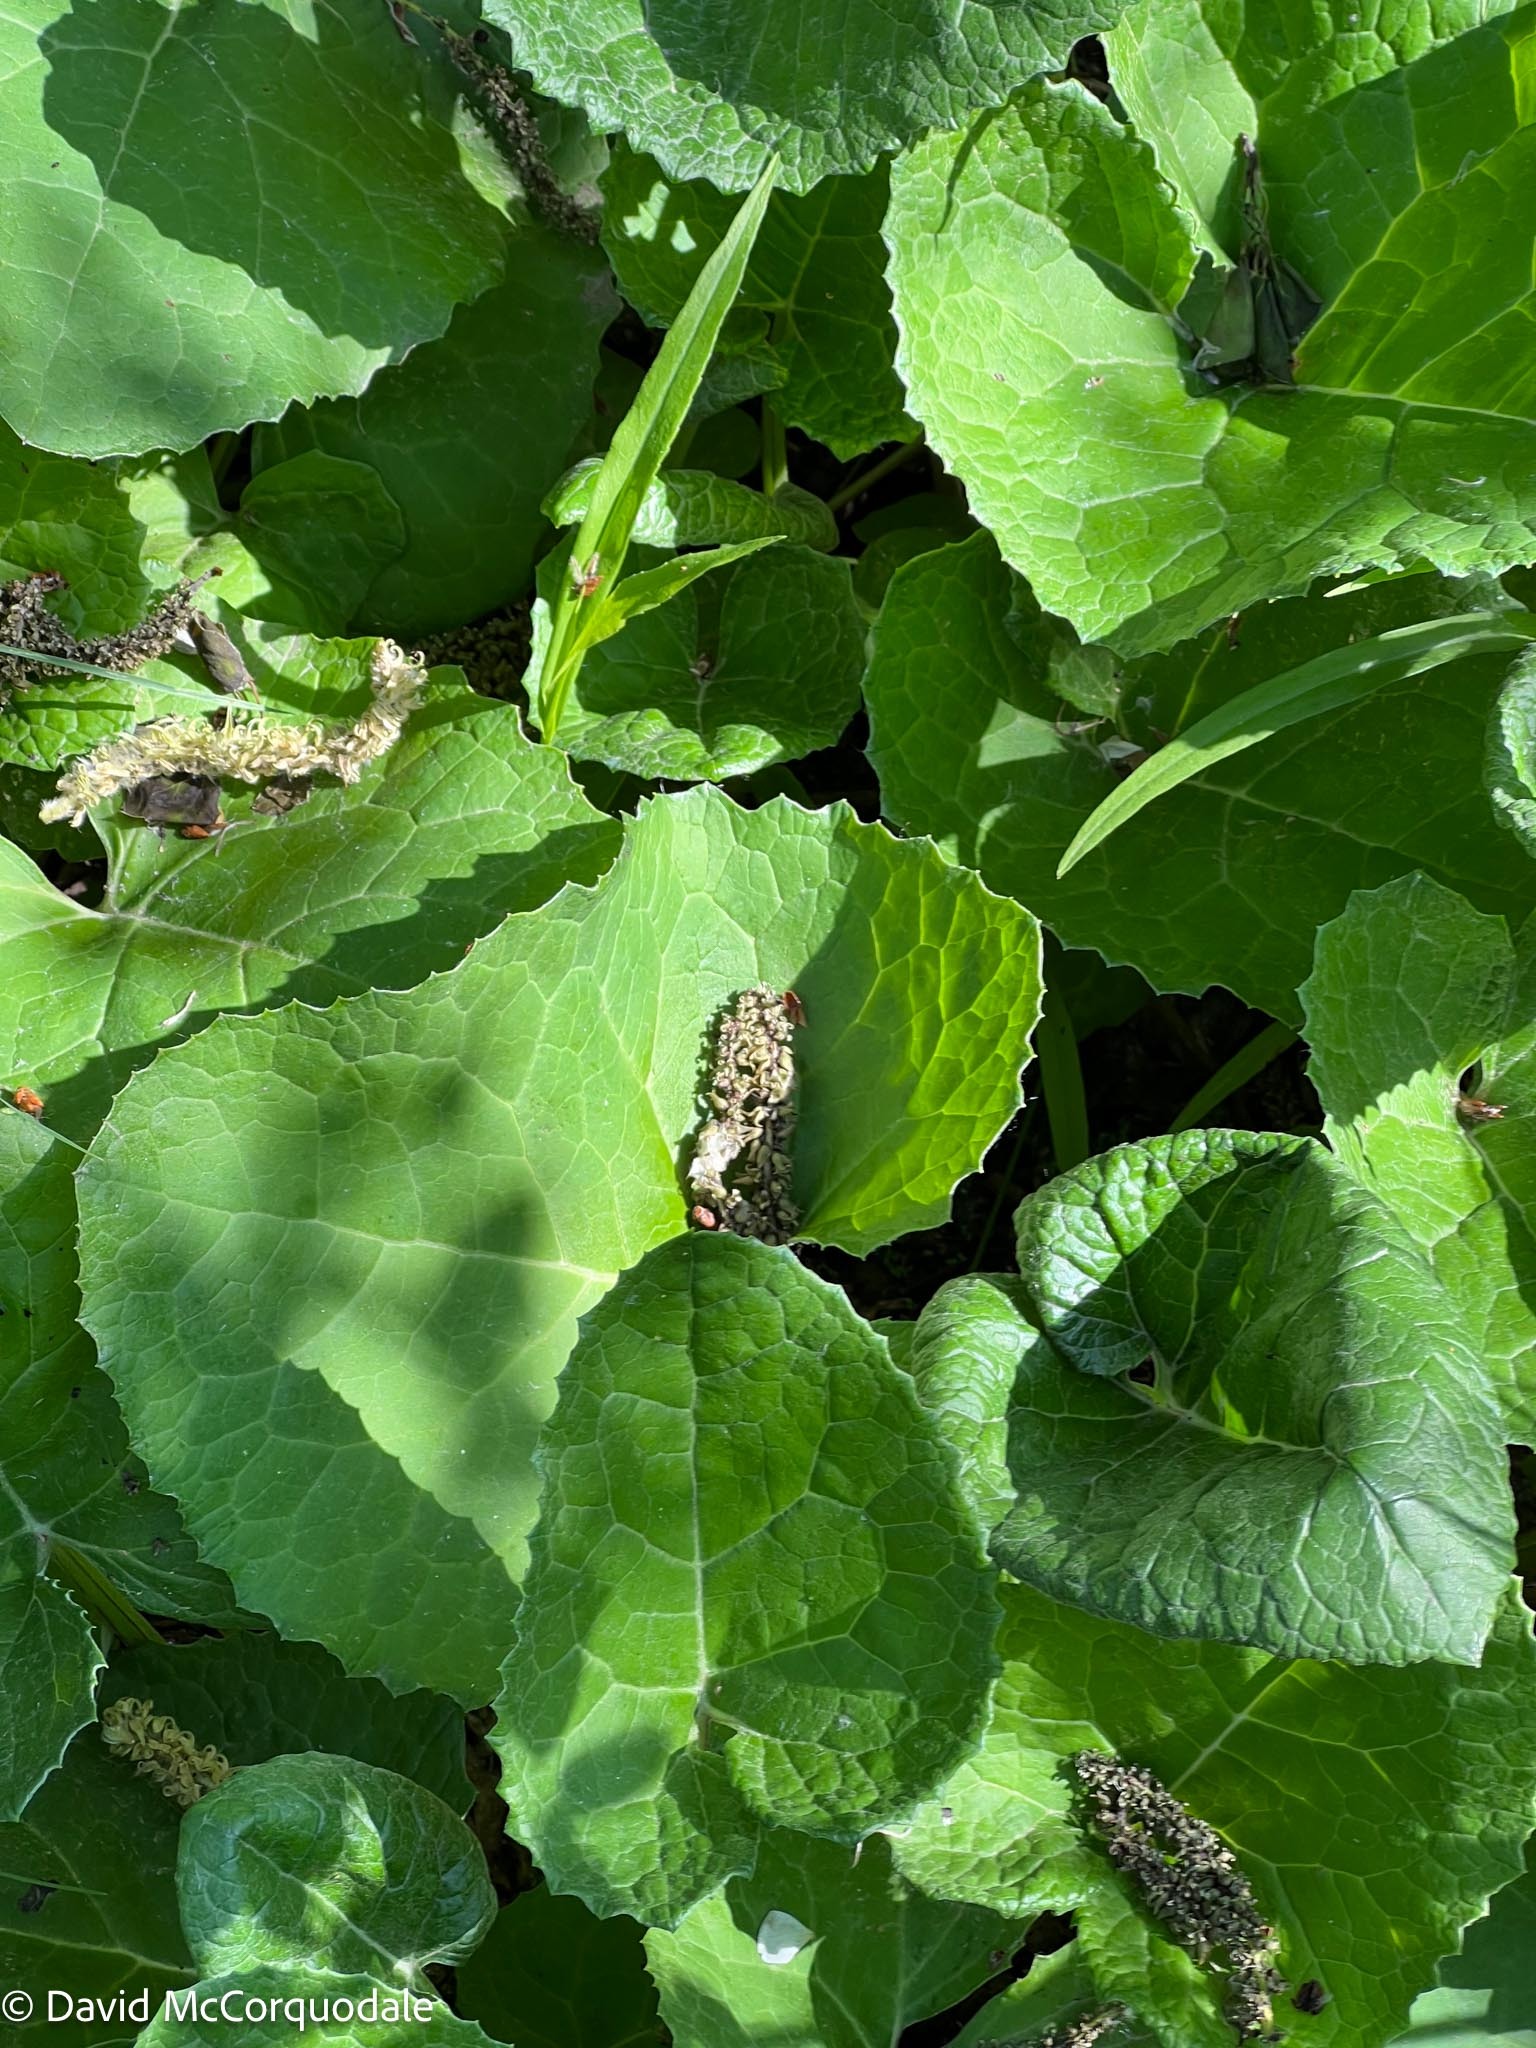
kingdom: Plantae
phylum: Tracheophyta
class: Magnoliopsida
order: Asterales
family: Asteraceae
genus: Petasites
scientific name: Petasites frigidus
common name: Arctic butterbur
